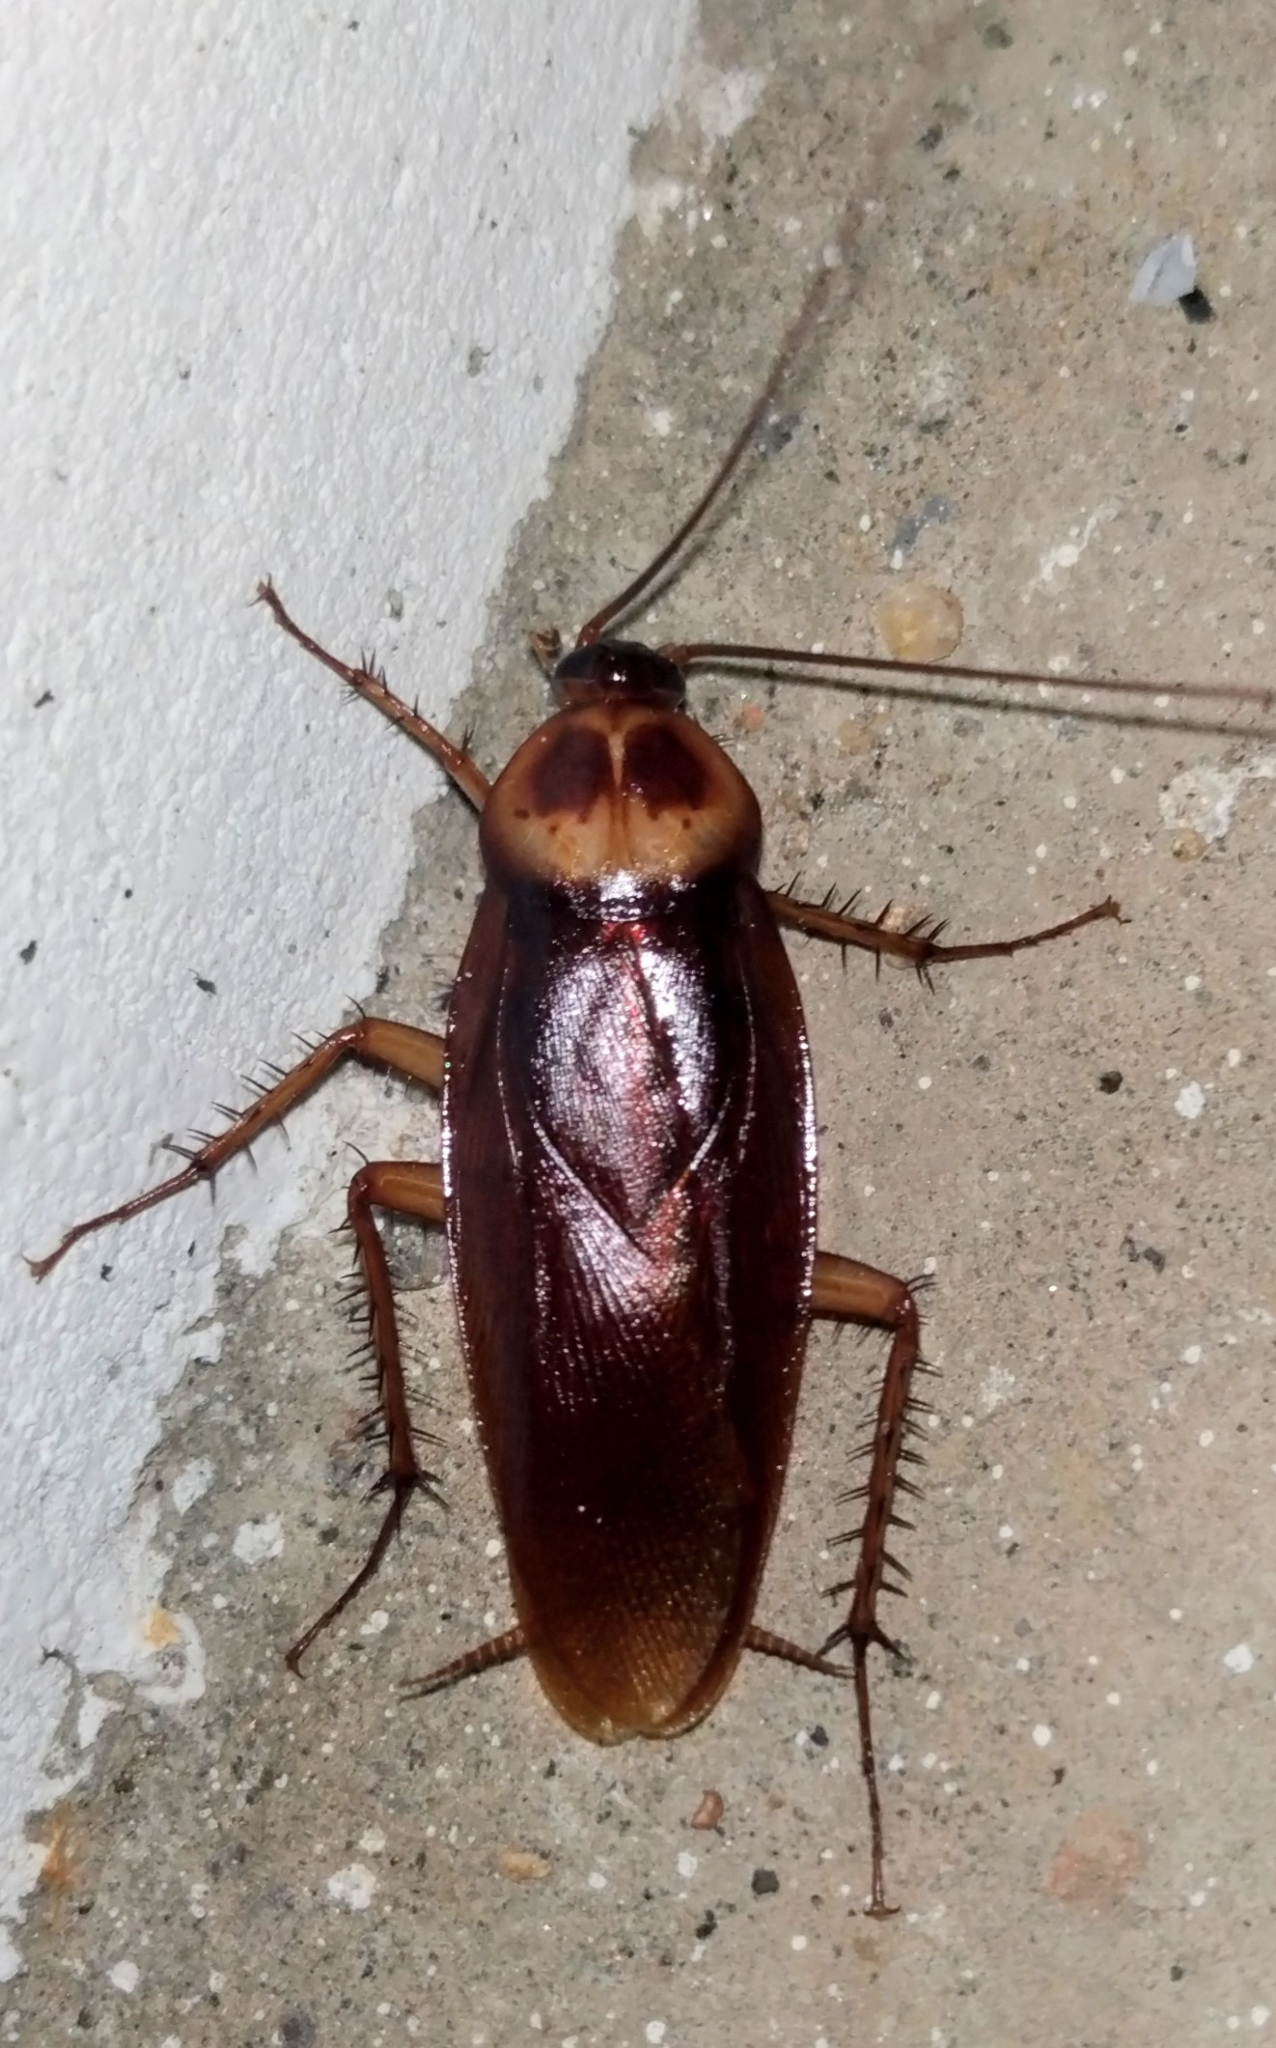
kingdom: Animalia
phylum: Arthropoda
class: Insecta
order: Blattodea
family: Blattidae
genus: Periplaneta
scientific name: Periplaneta americana
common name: American cockroach
